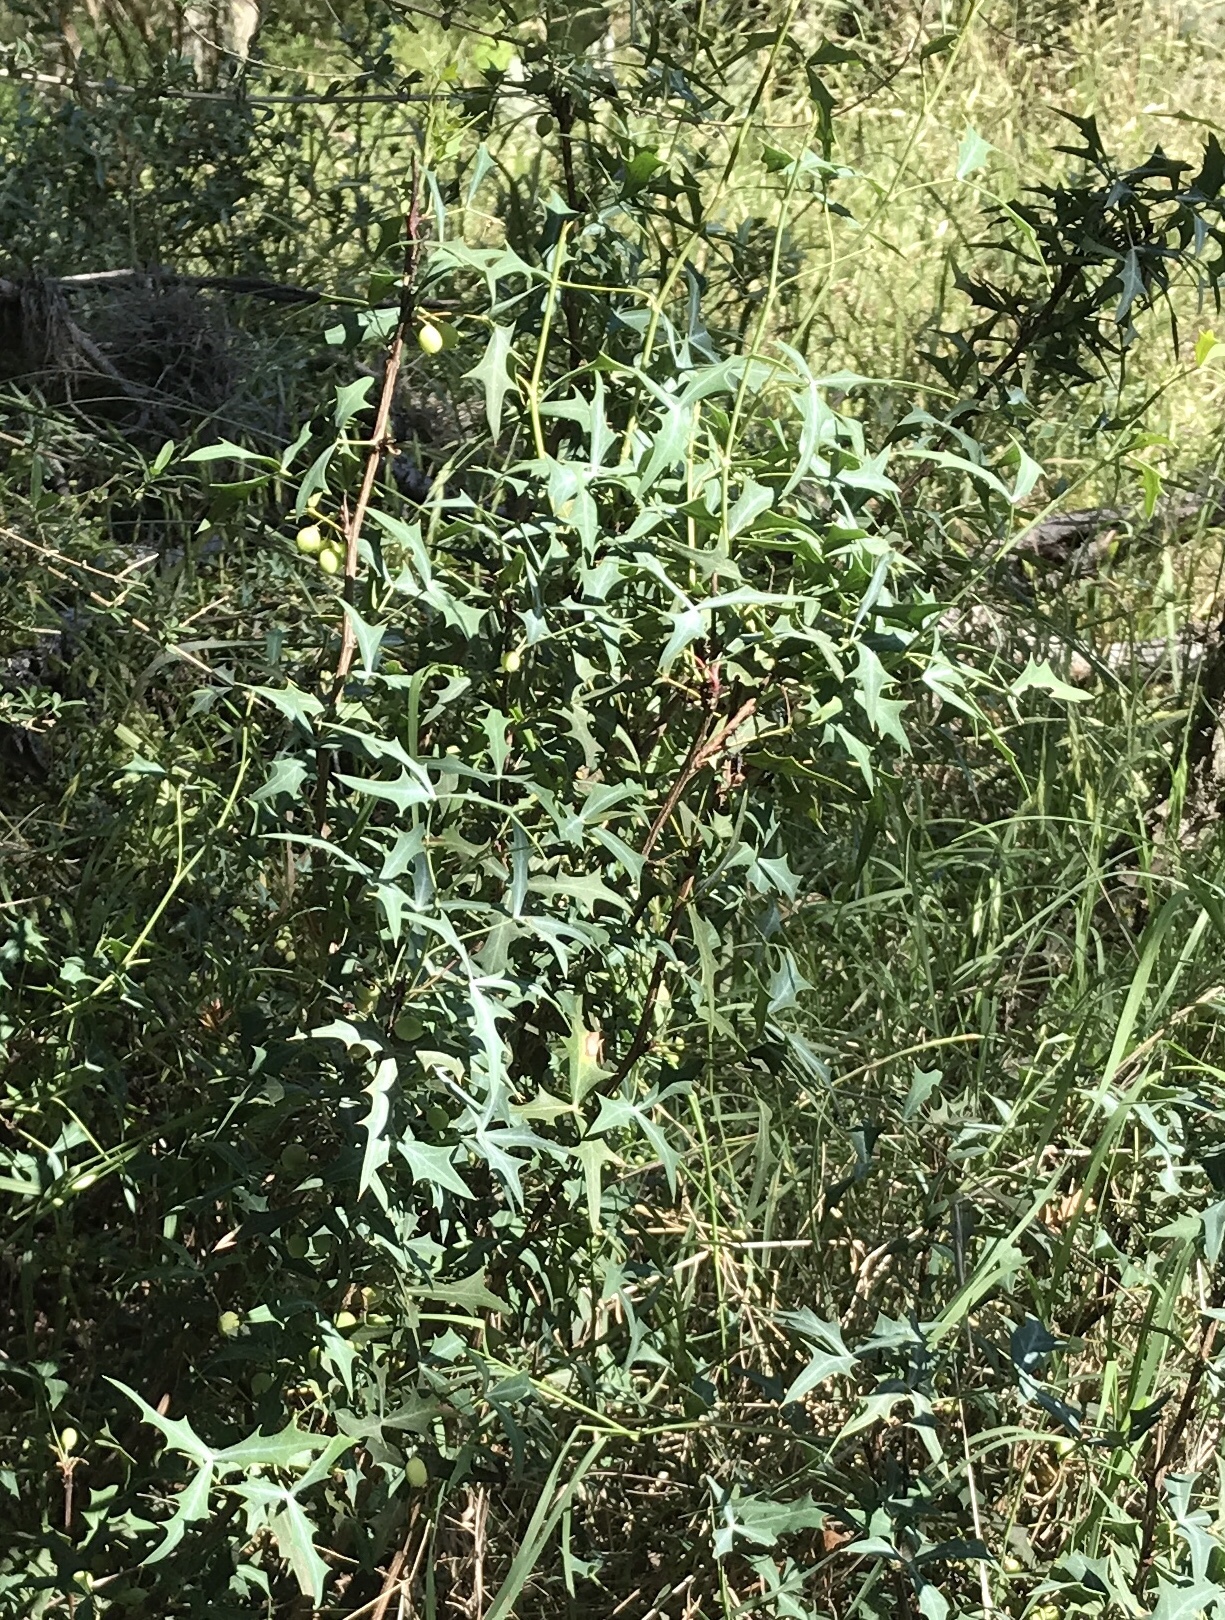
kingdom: Plantae
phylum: Tracheophyta
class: Magnoliopsida
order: Ranunculales
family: Berberidaceae
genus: Alloberberis
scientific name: Alloberberis trifoliolata
